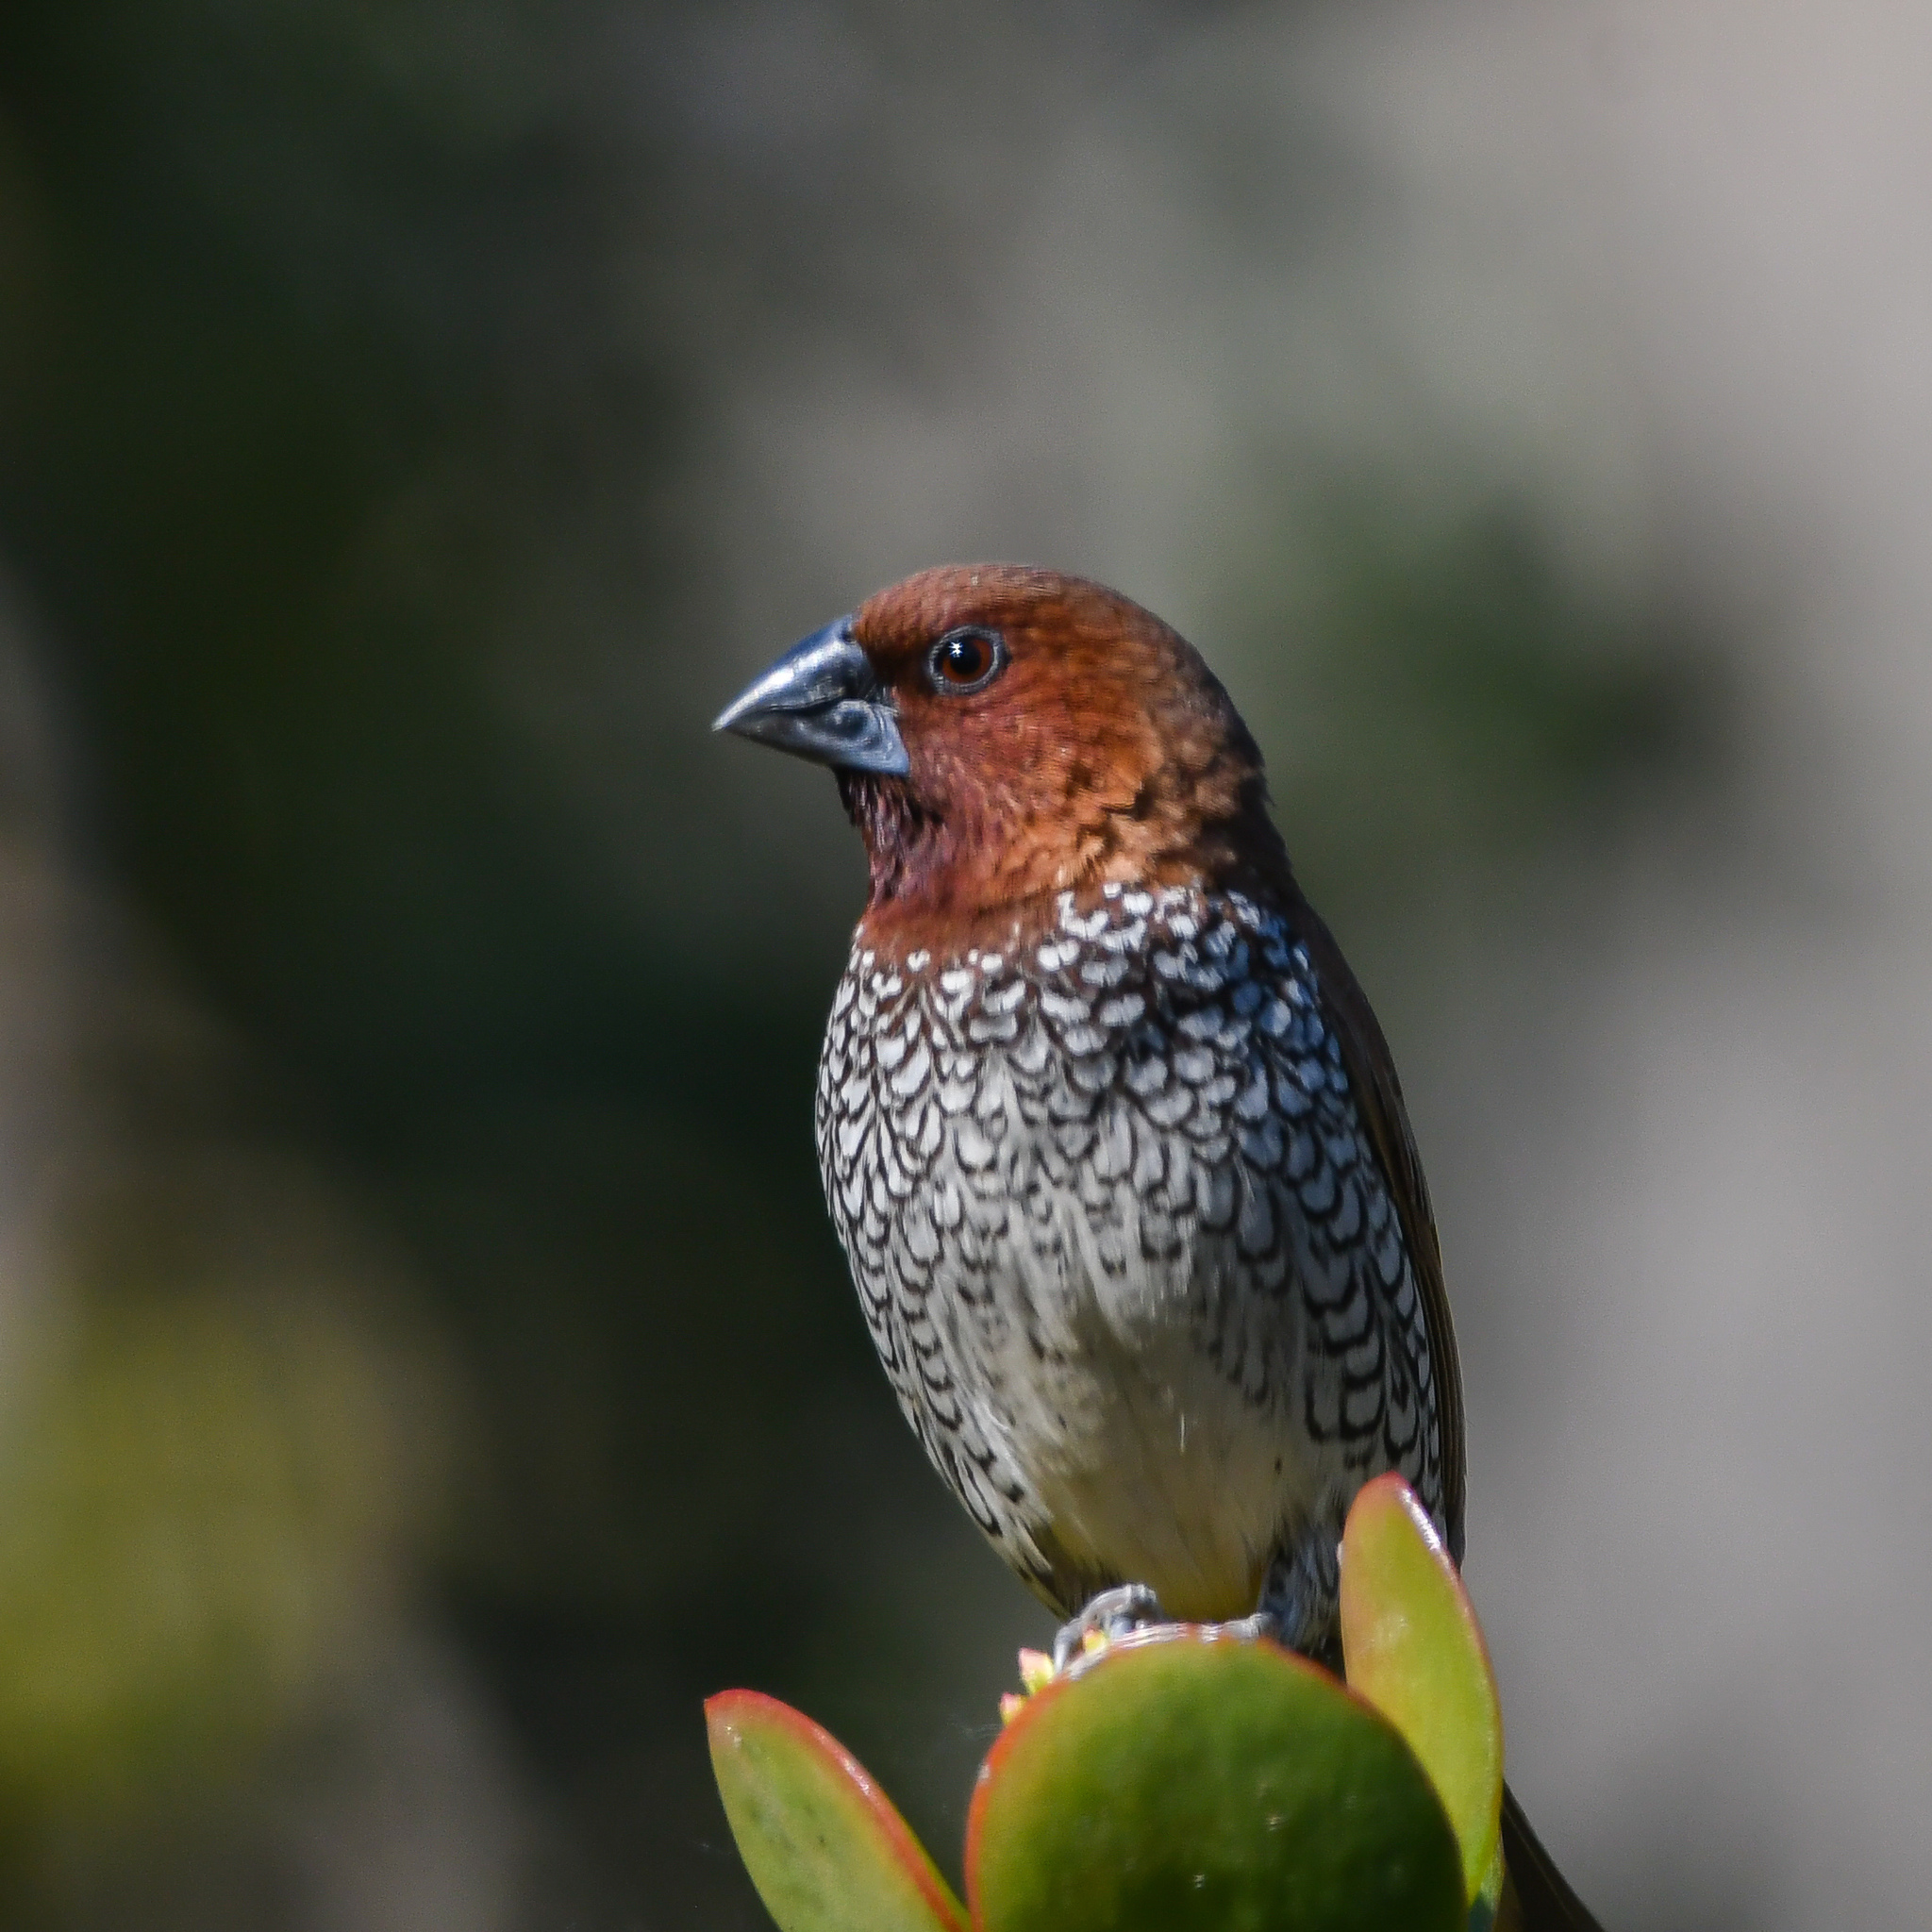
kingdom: Animalia
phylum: Chordata
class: Aves
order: Passeriformes
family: Estrildidae
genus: Lonchura
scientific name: Lonchura punctulata
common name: Scaly-breasted munia
